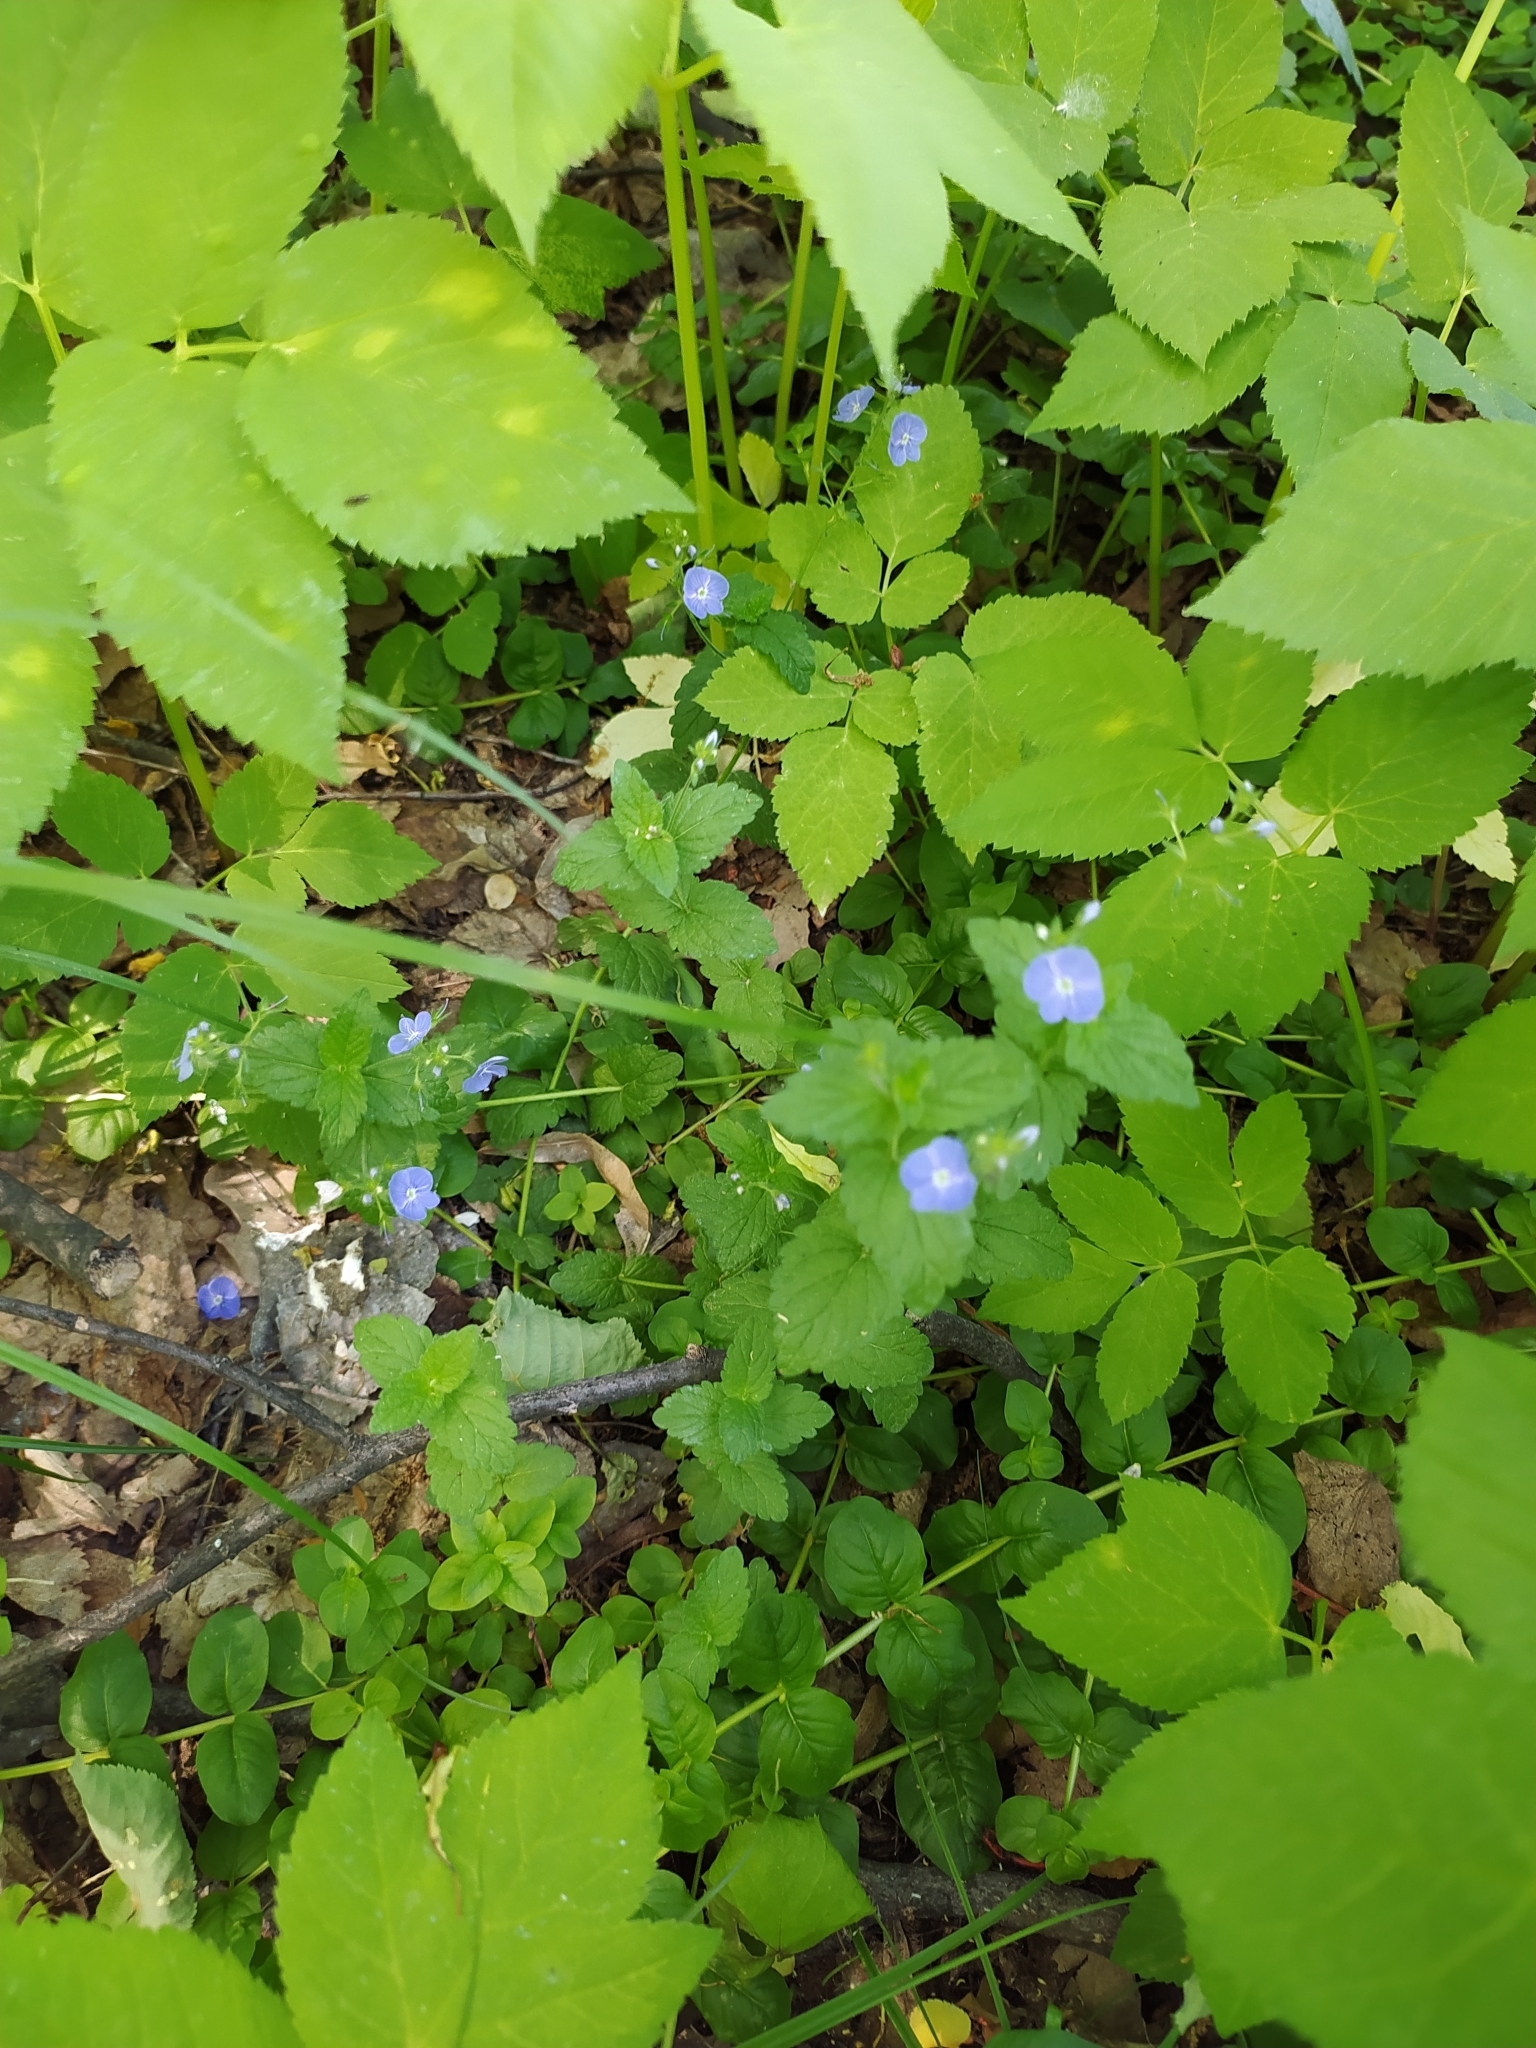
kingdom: Plantae
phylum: Tracheophyta
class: Magnoliopsida
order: Lamiales
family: Plantaginaceae
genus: Veronica
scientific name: Veronica chamaedrys
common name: Germander speedwell
